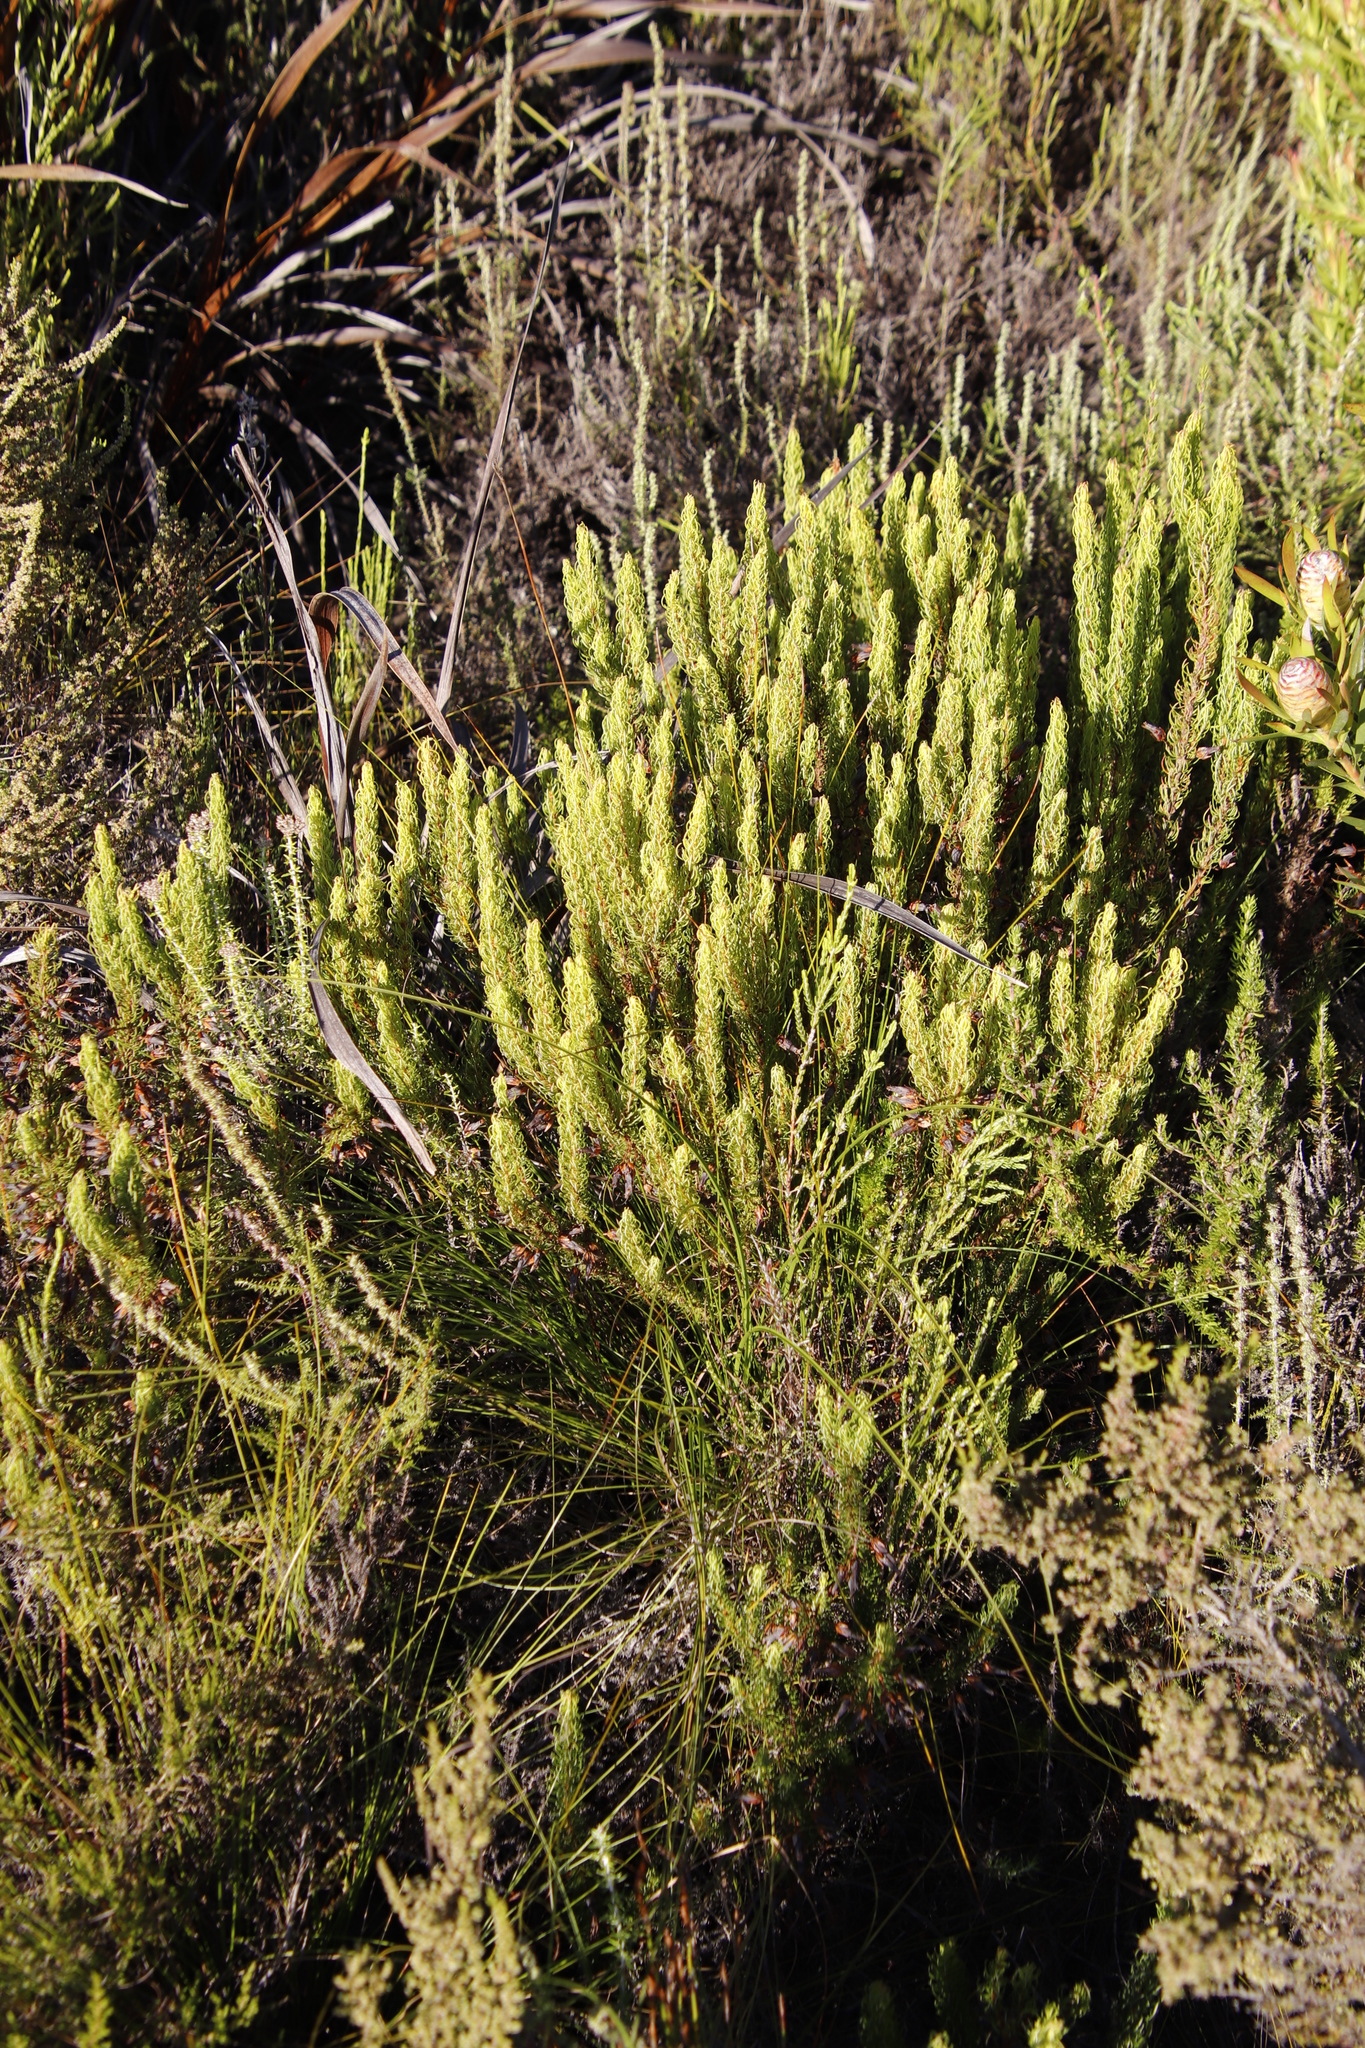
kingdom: Plantae
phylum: Tracheophyta
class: Magnoliopsida
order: Ericales
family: Ericaceae
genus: Erica
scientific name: Erica plukenetii
